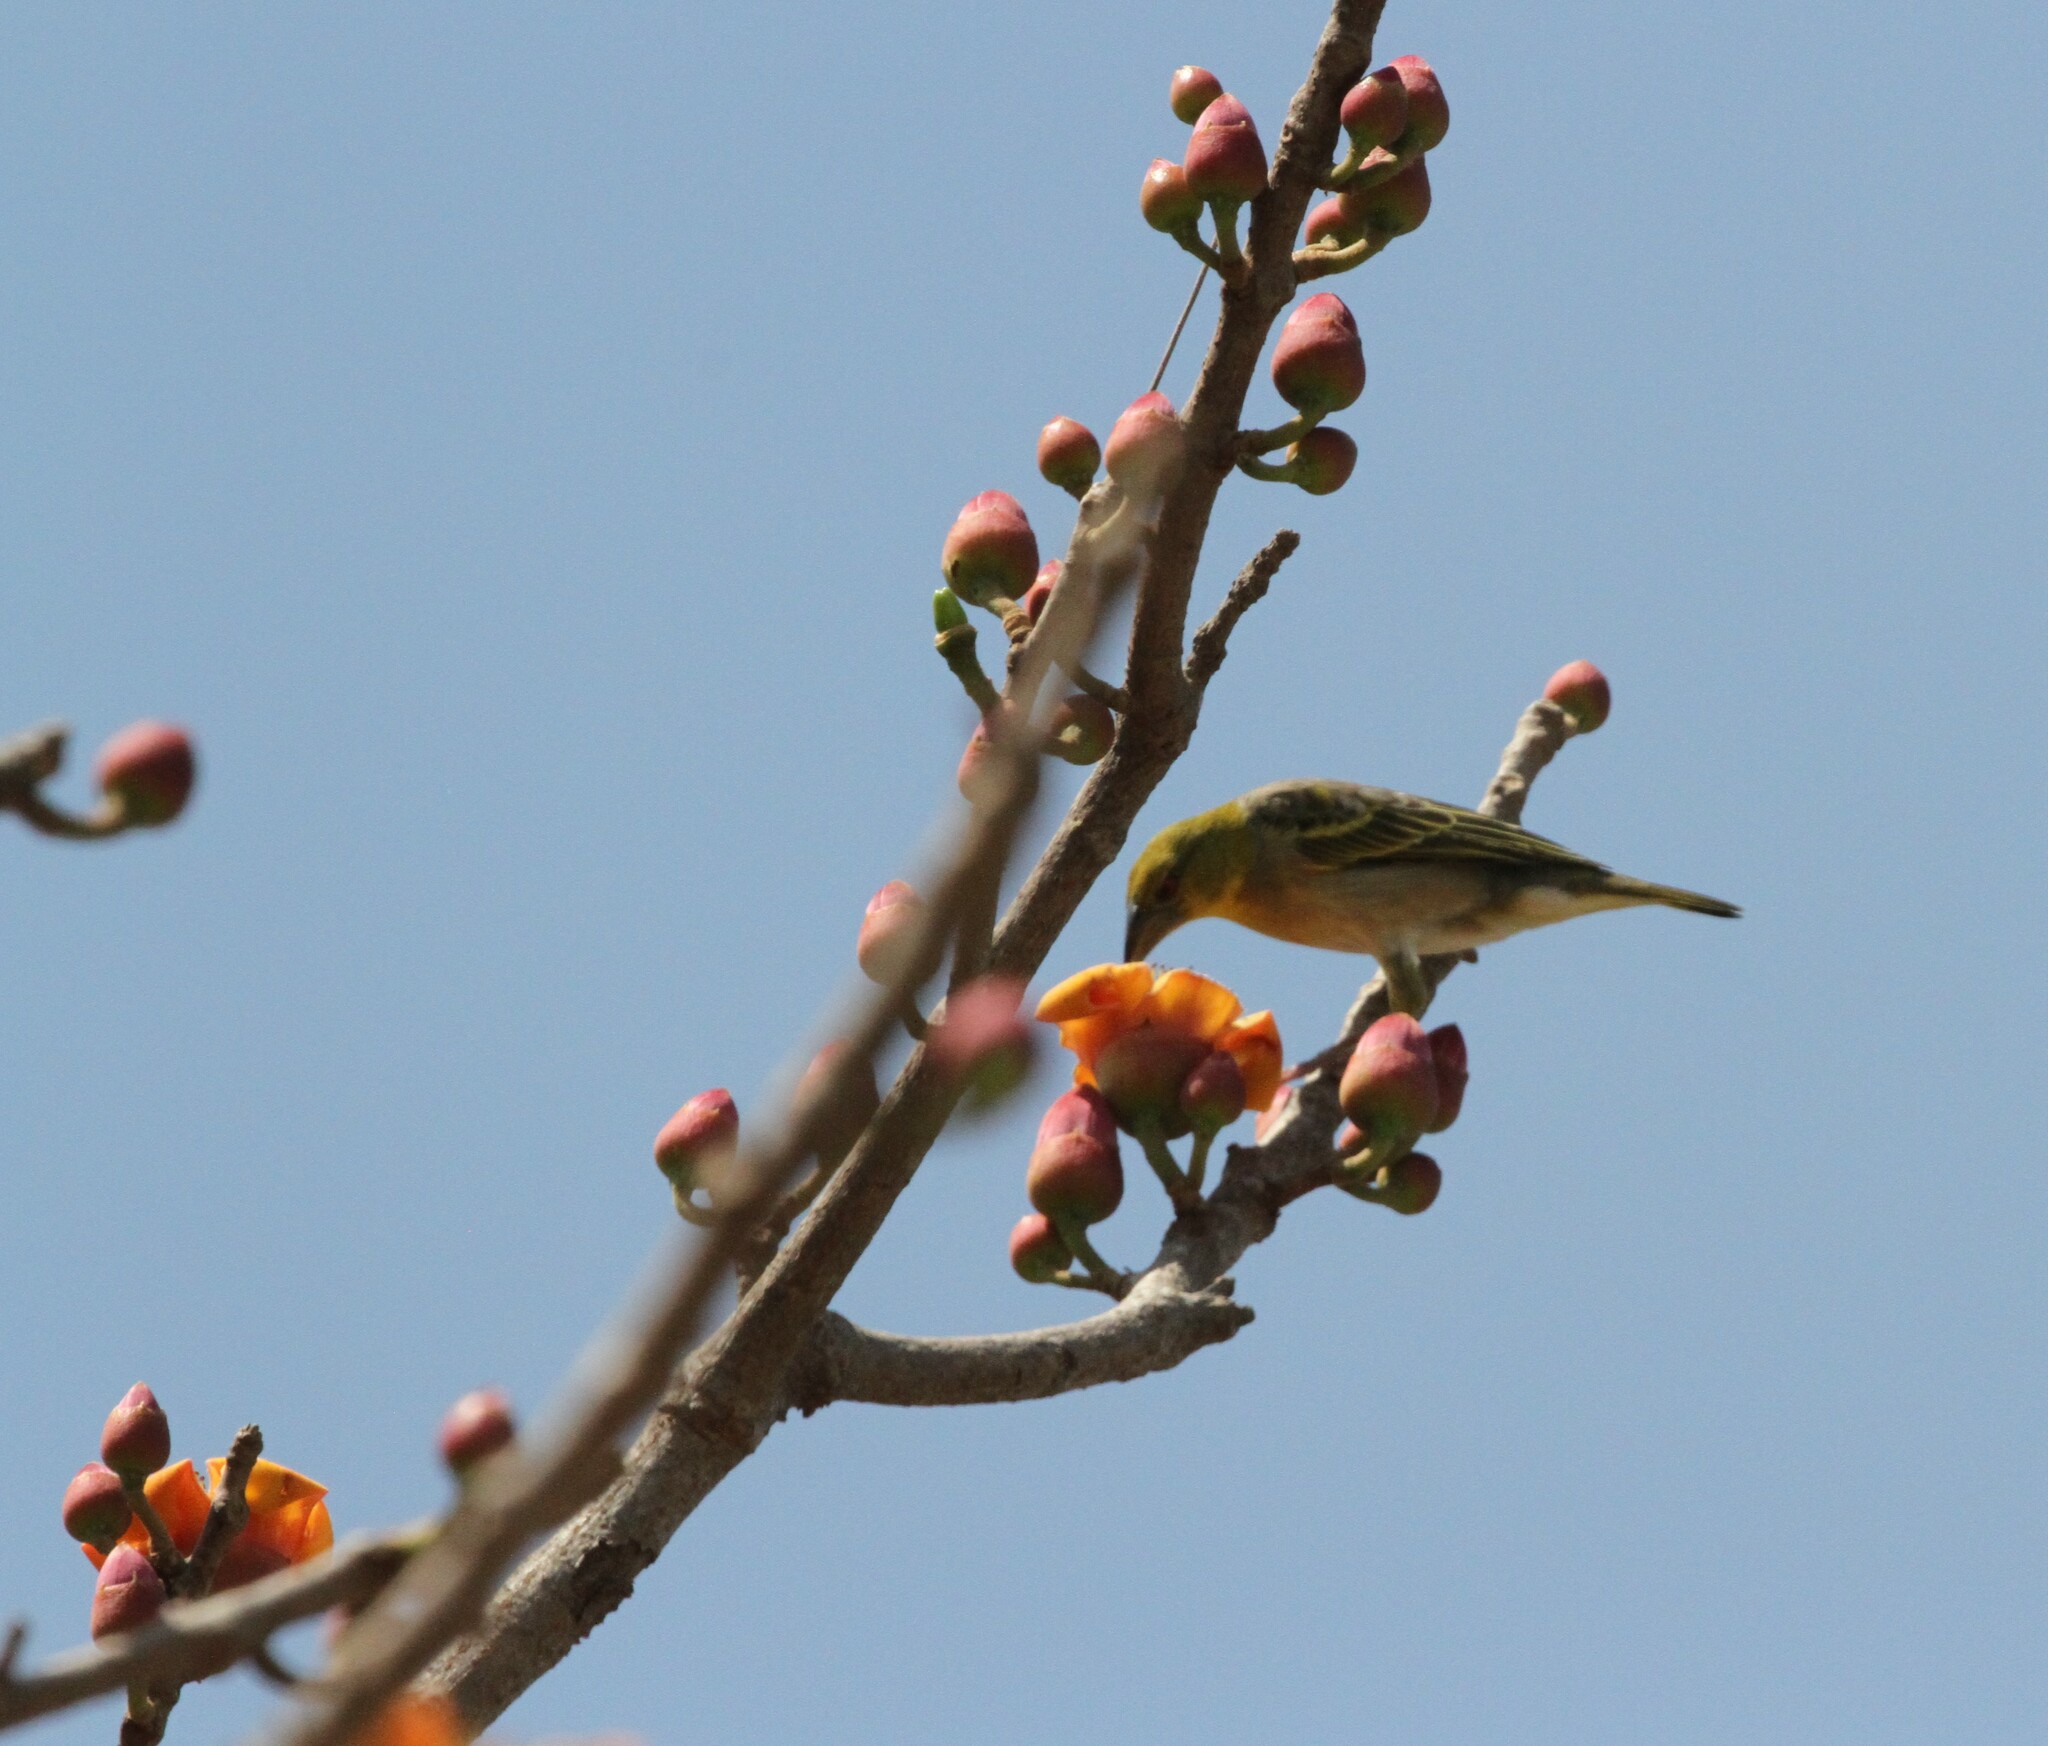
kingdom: Animalia
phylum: Chordata
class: Aves
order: Passeriformes
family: Ploceidae
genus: Ploceus
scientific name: Ploceus cucullatus
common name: Village weaver
